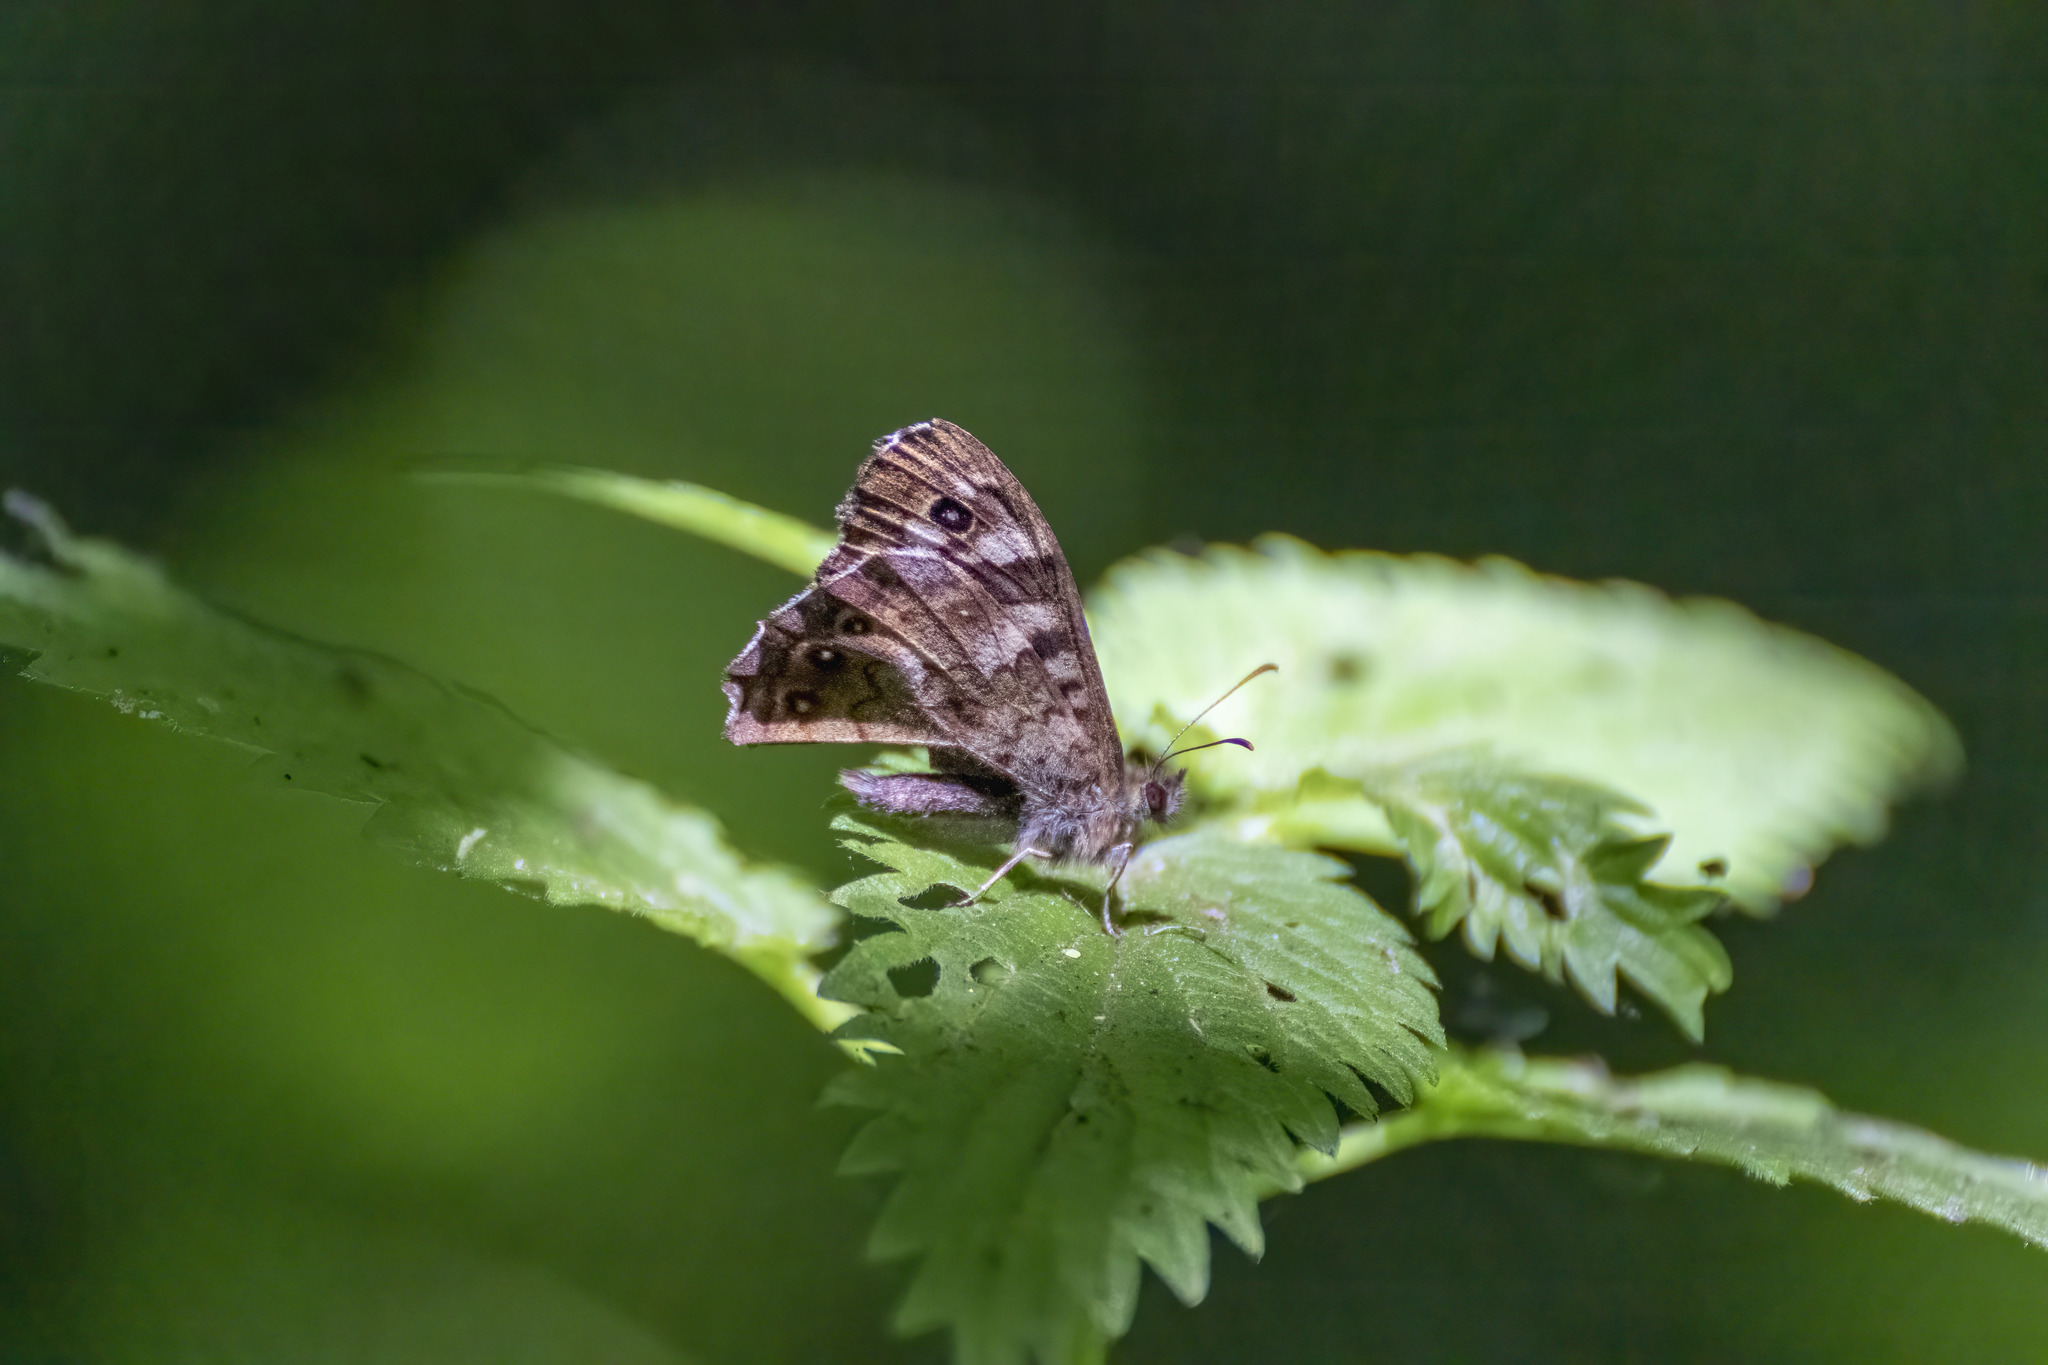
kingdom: Animalia
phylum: Arthropoda
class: Insecta
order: Lepidoptera
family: Nymphalidae
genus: Pararge
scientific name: Pararge aegeria
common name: Speckled wood
